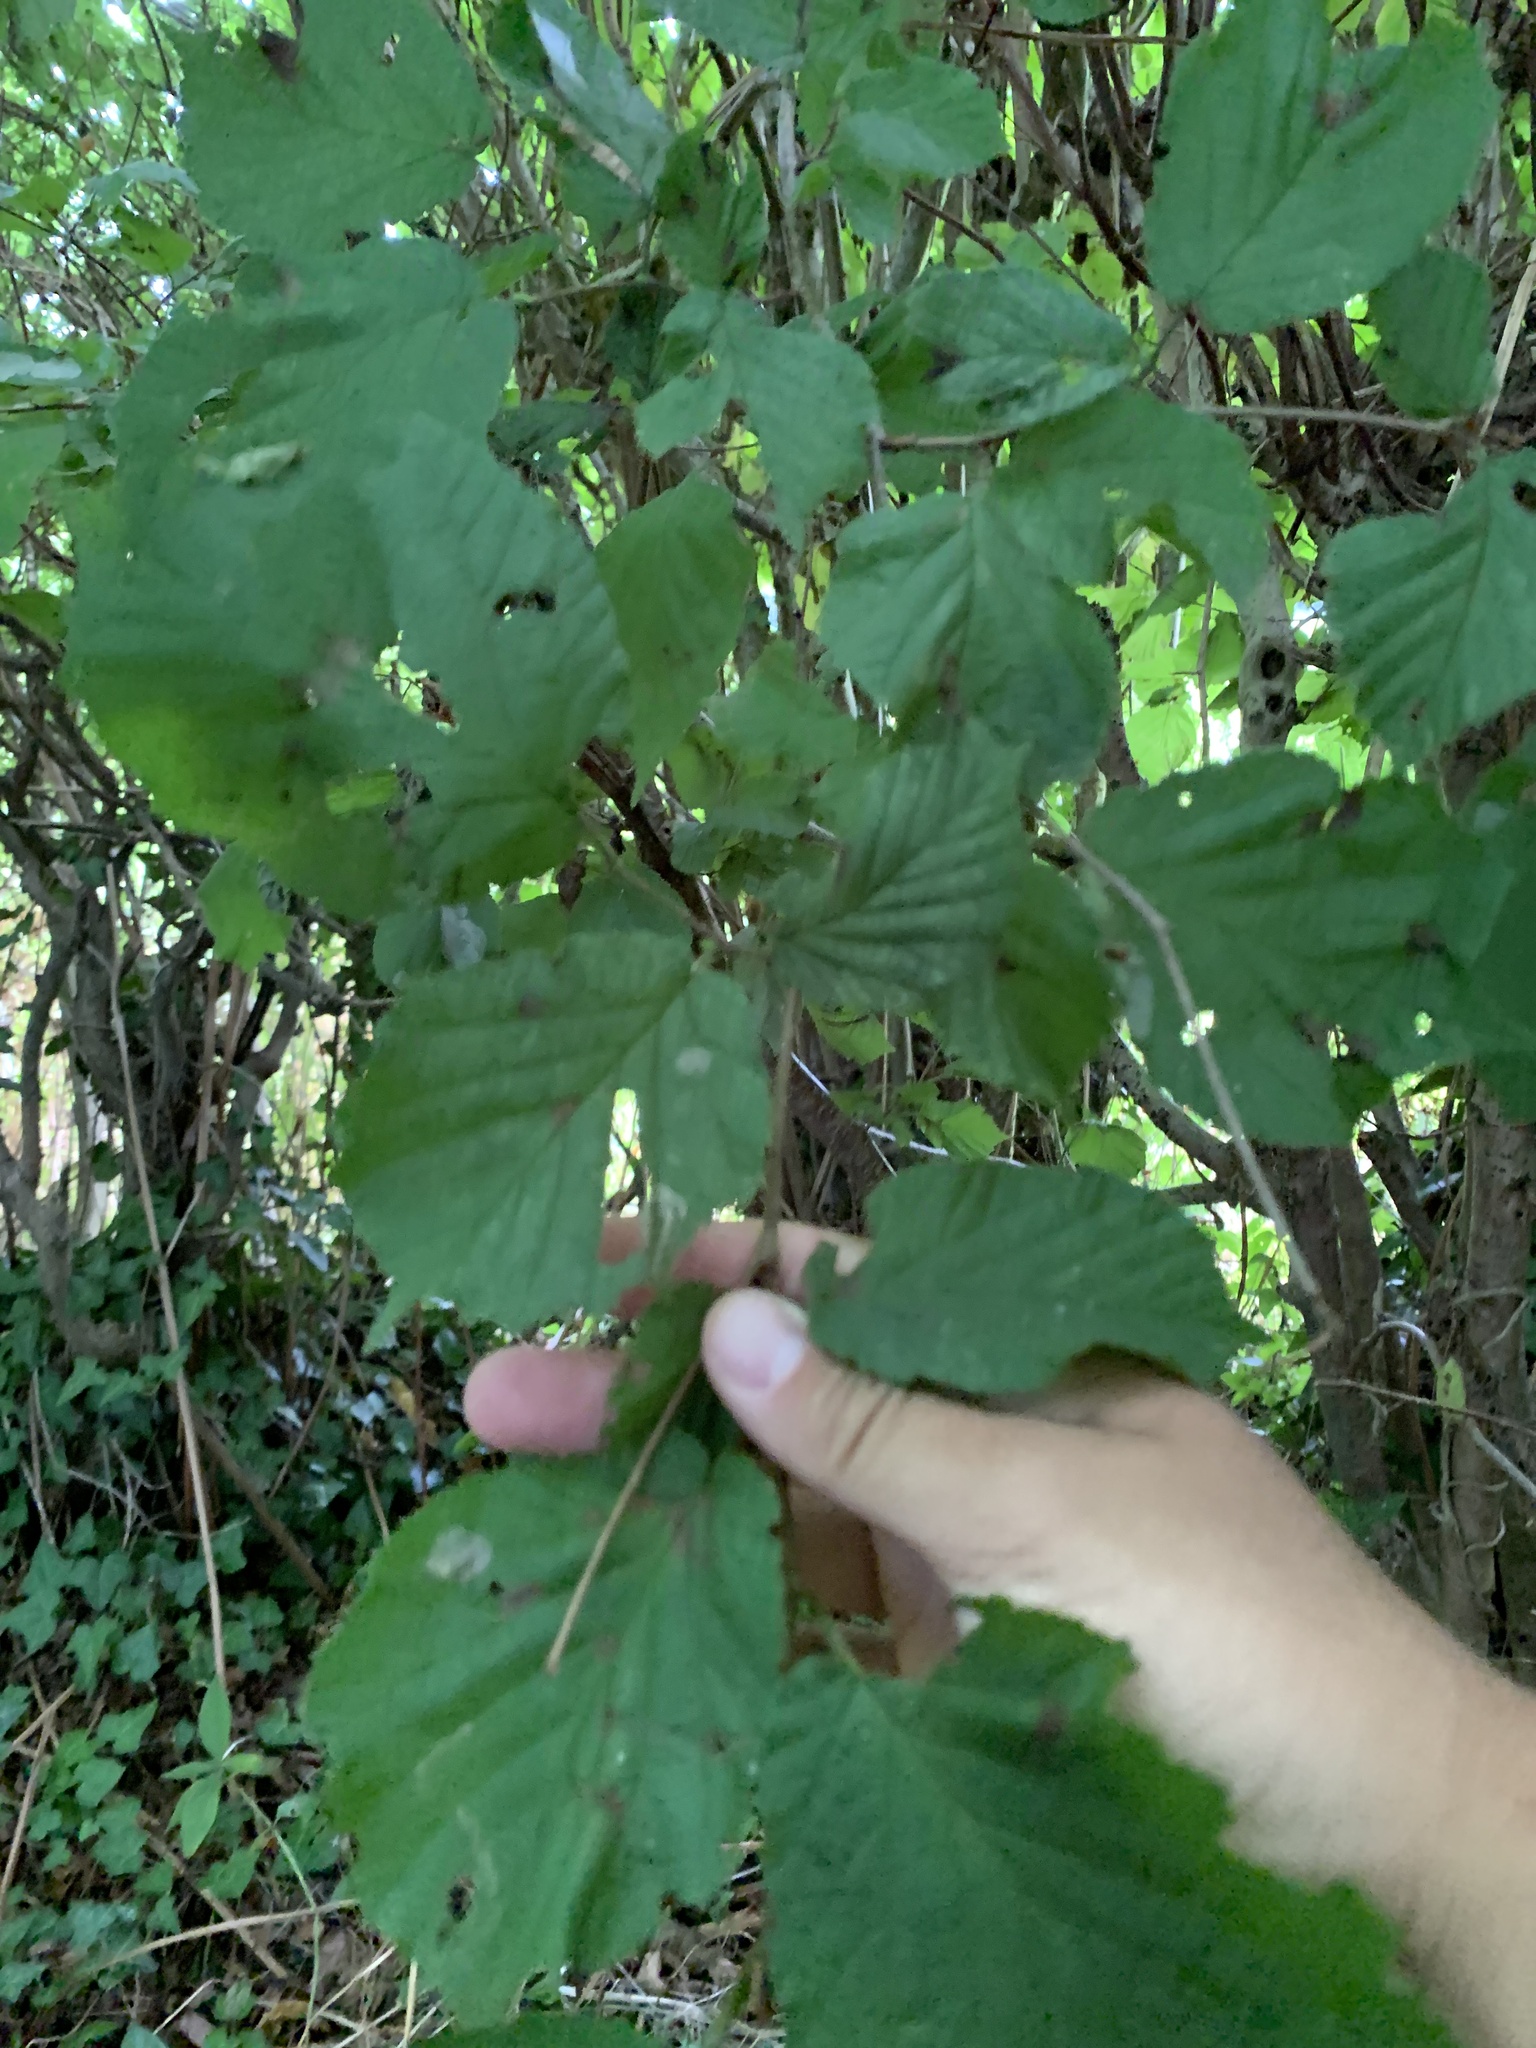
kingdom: Plantae
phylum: Tracheophyta
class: Magnoliopsida
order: Fagales
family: Betulaceae
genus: Corylus
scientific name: Corylus avellana
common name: European hazel
